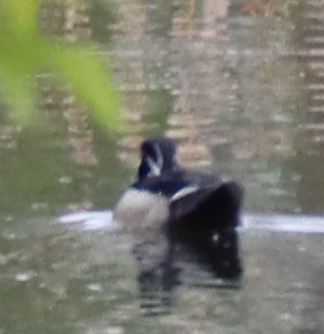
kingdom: Animalia
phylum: Chordata
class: Aves
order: Anseriformes
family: Anatidae
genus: Aix
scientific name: Aix sponsa
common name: Wood duck
